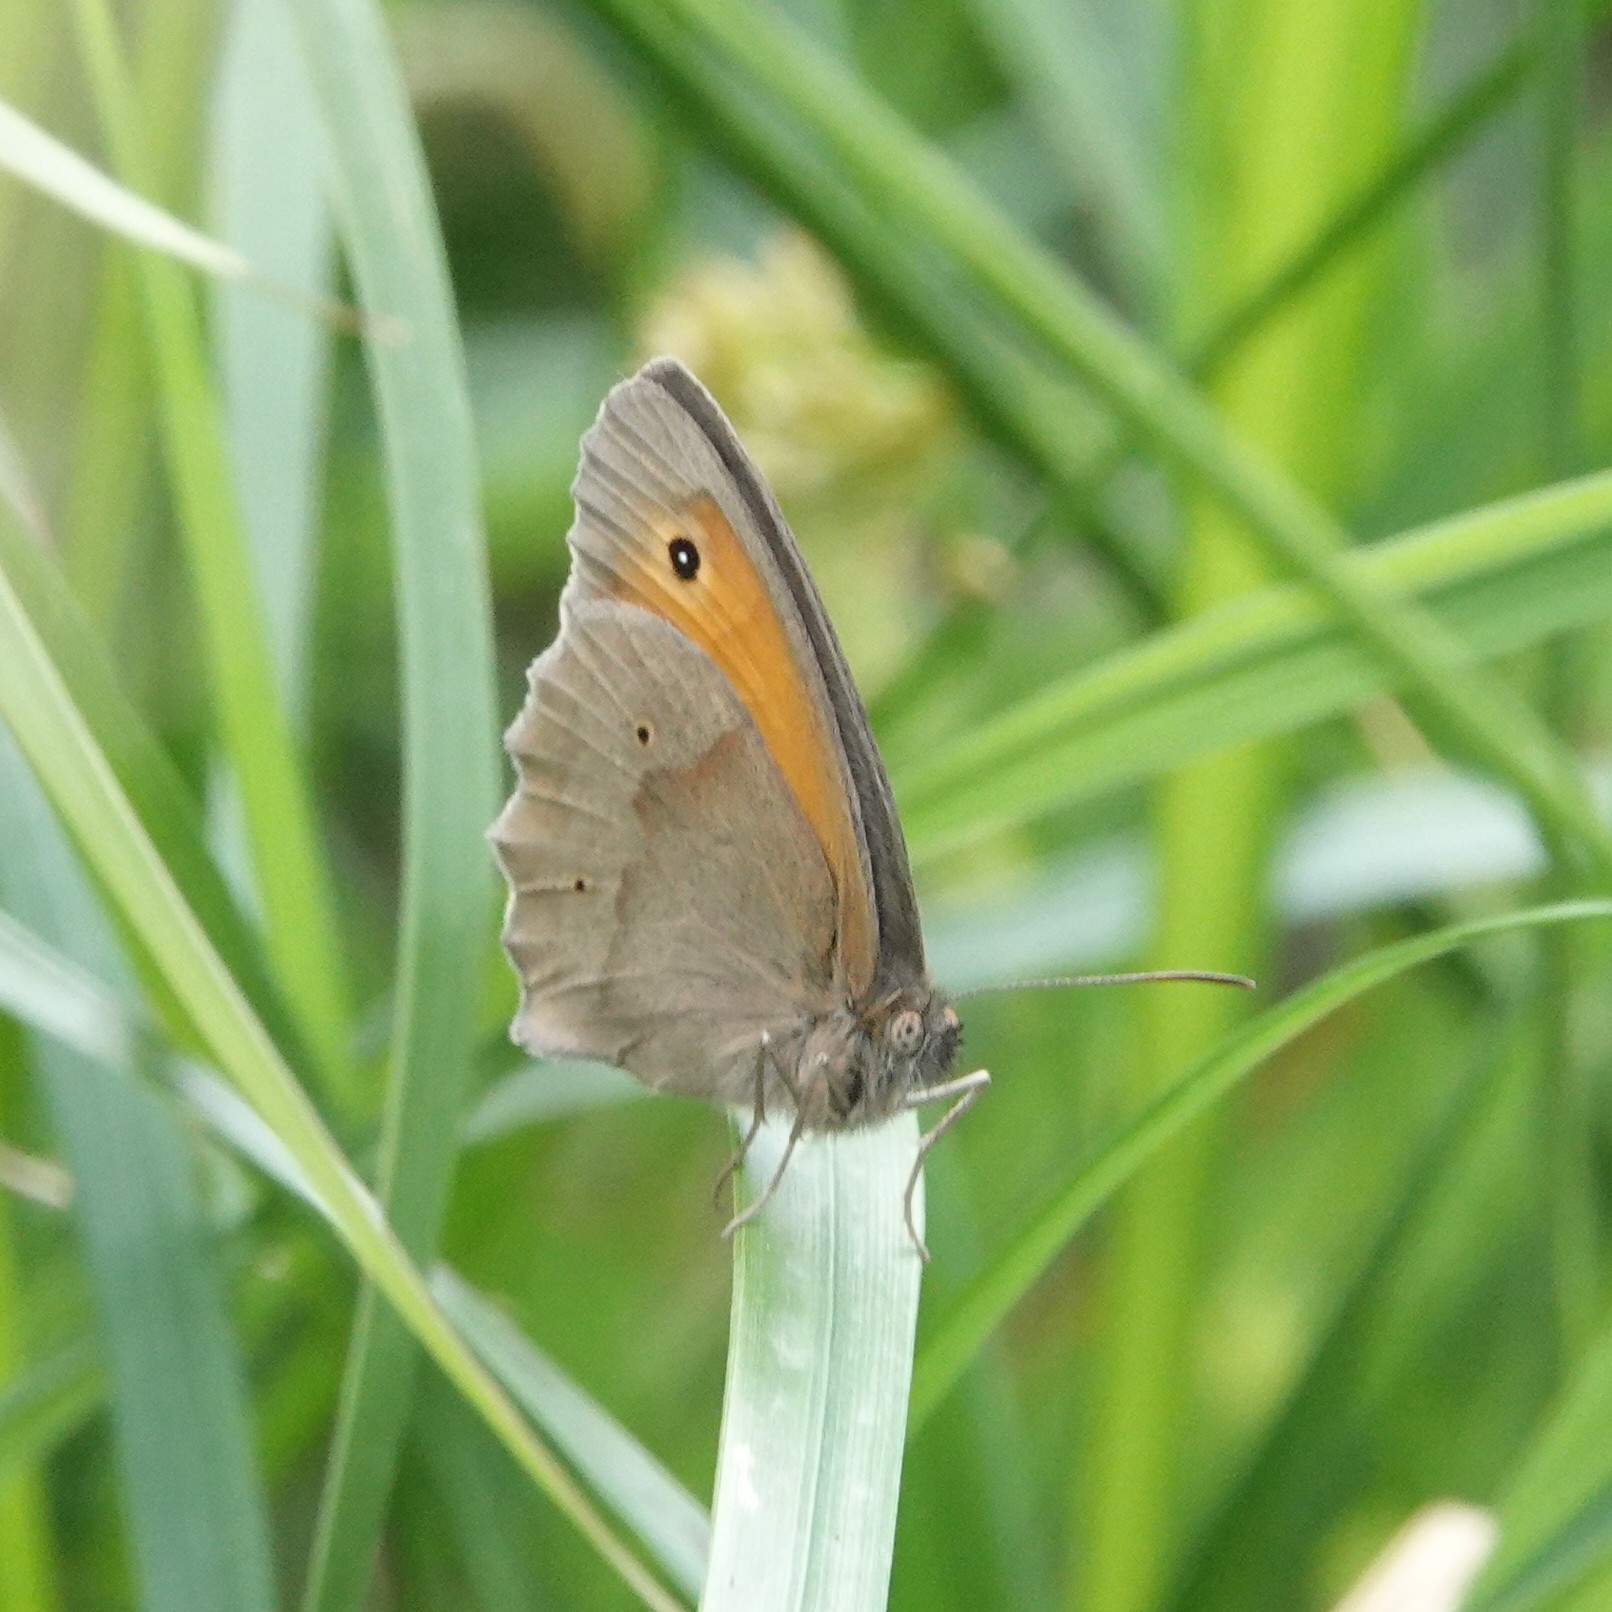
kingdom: Animalia
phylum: Arthropoda
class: Insecta
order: Lepidoptera
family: Nymphalidae
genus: Maniola
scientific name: Maniola jurtina
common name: Meadow brown
